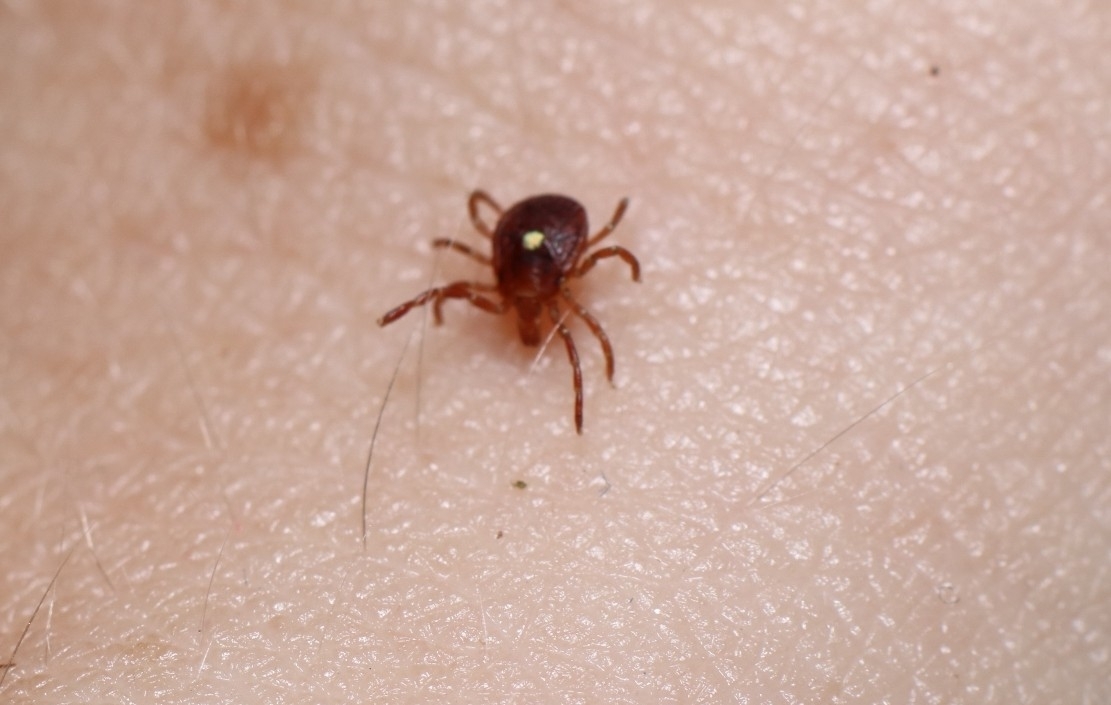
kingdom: Animalia
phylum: Arthropoda
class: Arachnida
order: Ixodida
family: Ixodidae
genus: Amblyomma
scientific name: Amblyomma americanum
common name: Lone star tick
